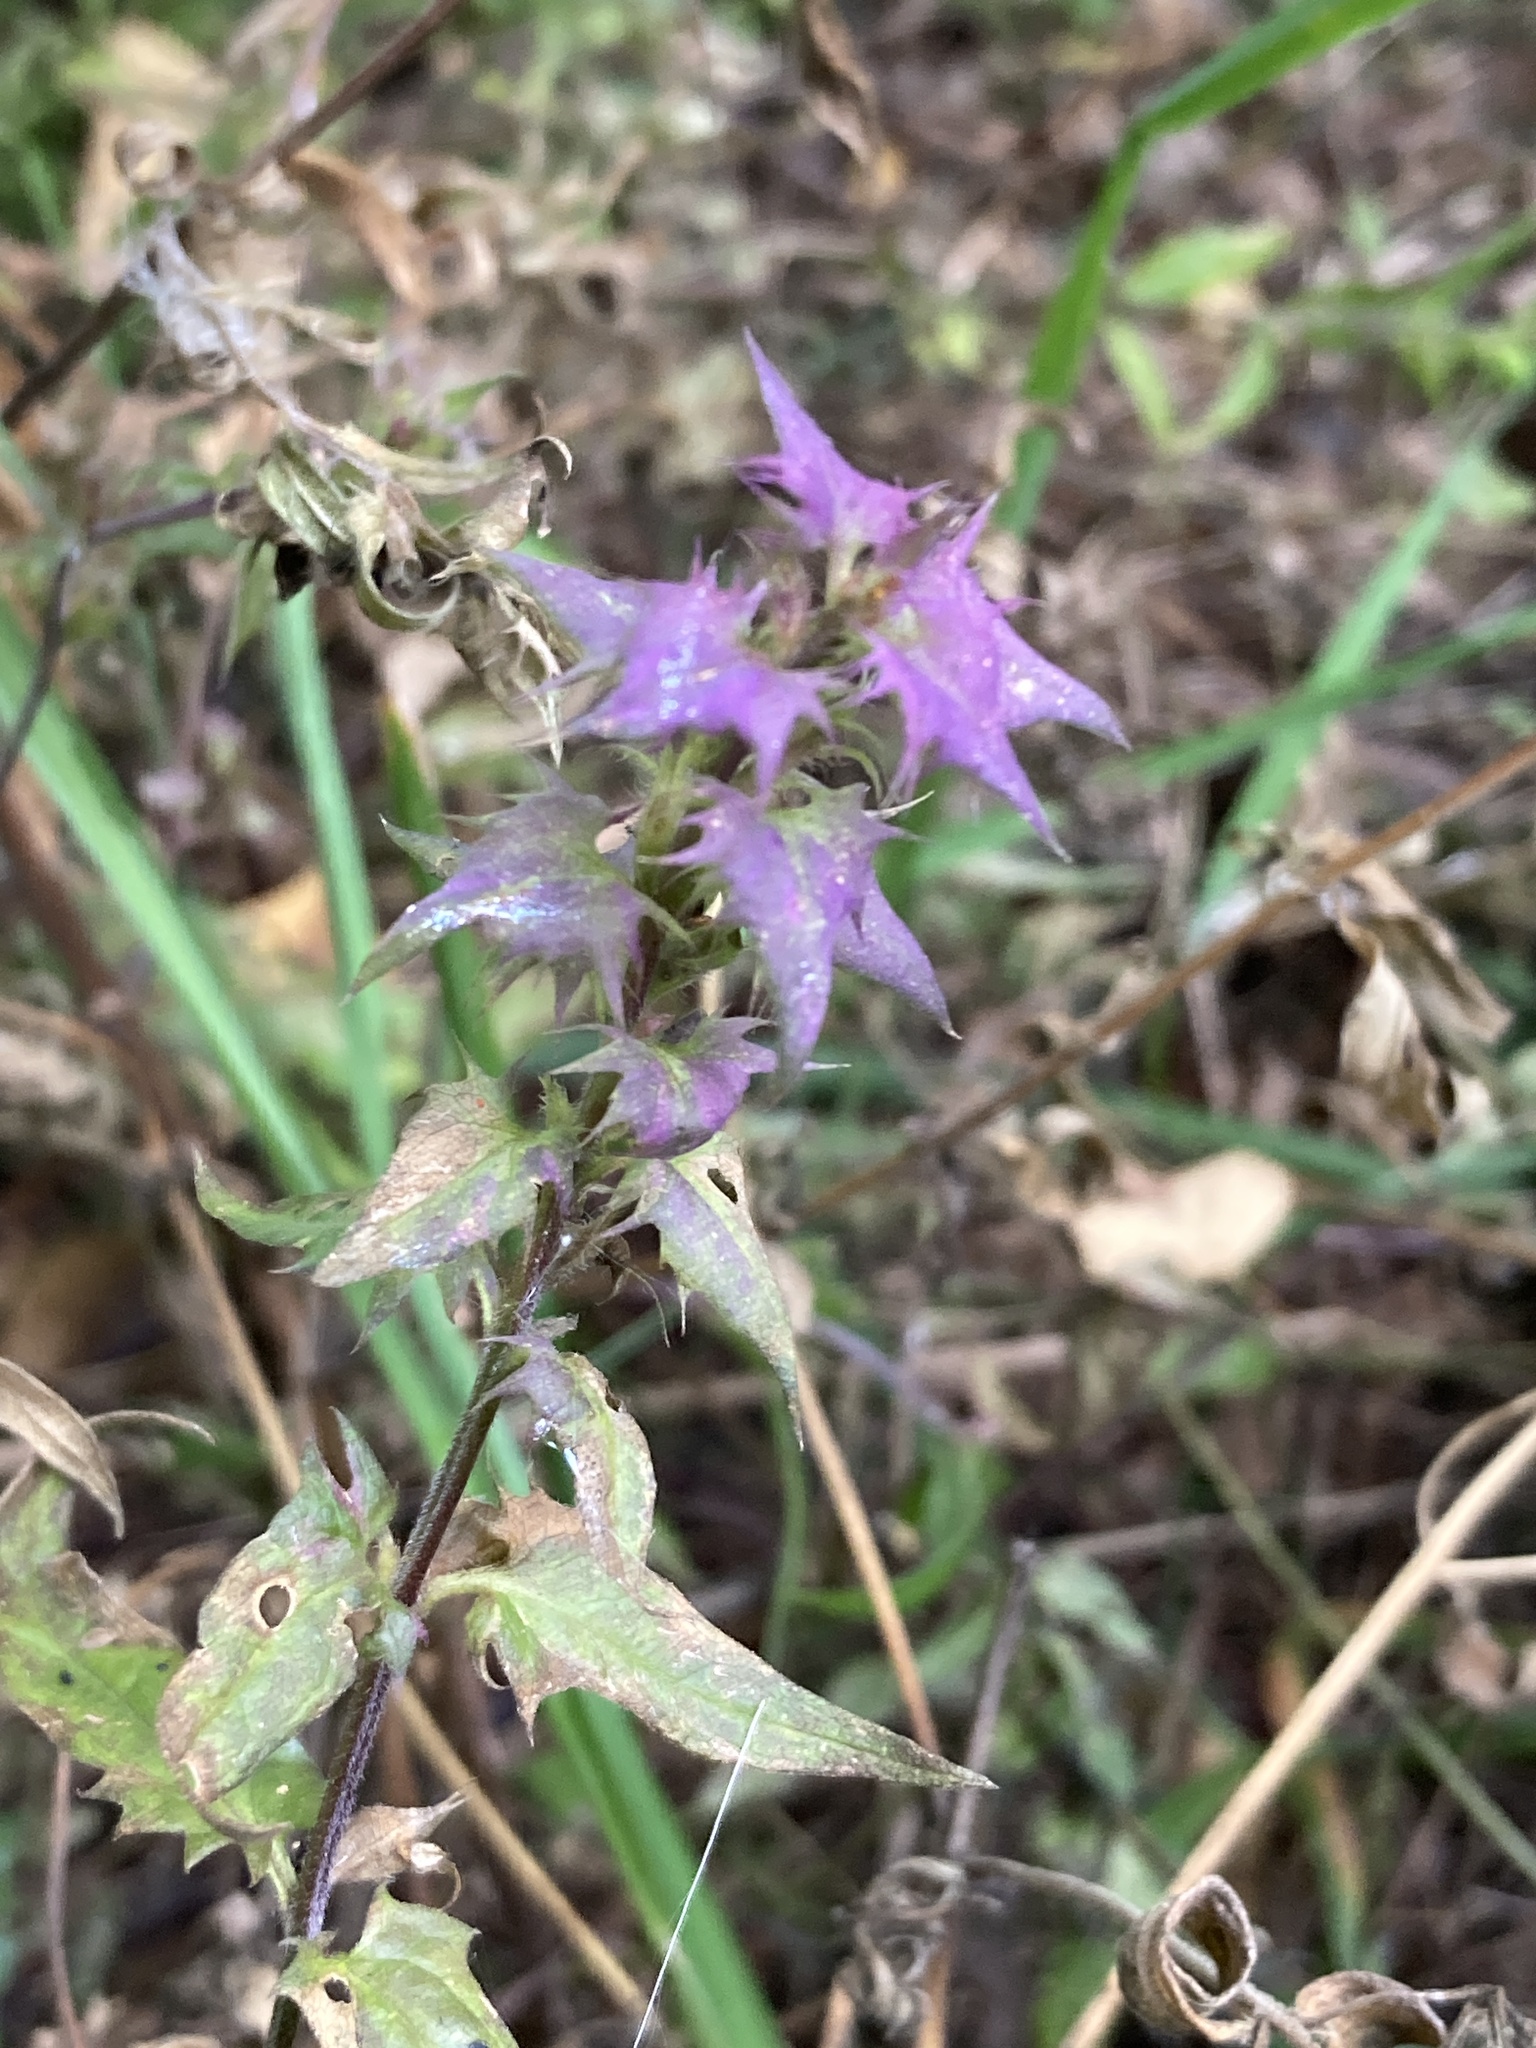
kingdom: Plantae
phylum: Tracheophyta
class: Magnoliopsida
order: Lamiales
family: Orobanchaceae
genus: Melampyrum
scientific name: Melampyrum nemorosum
